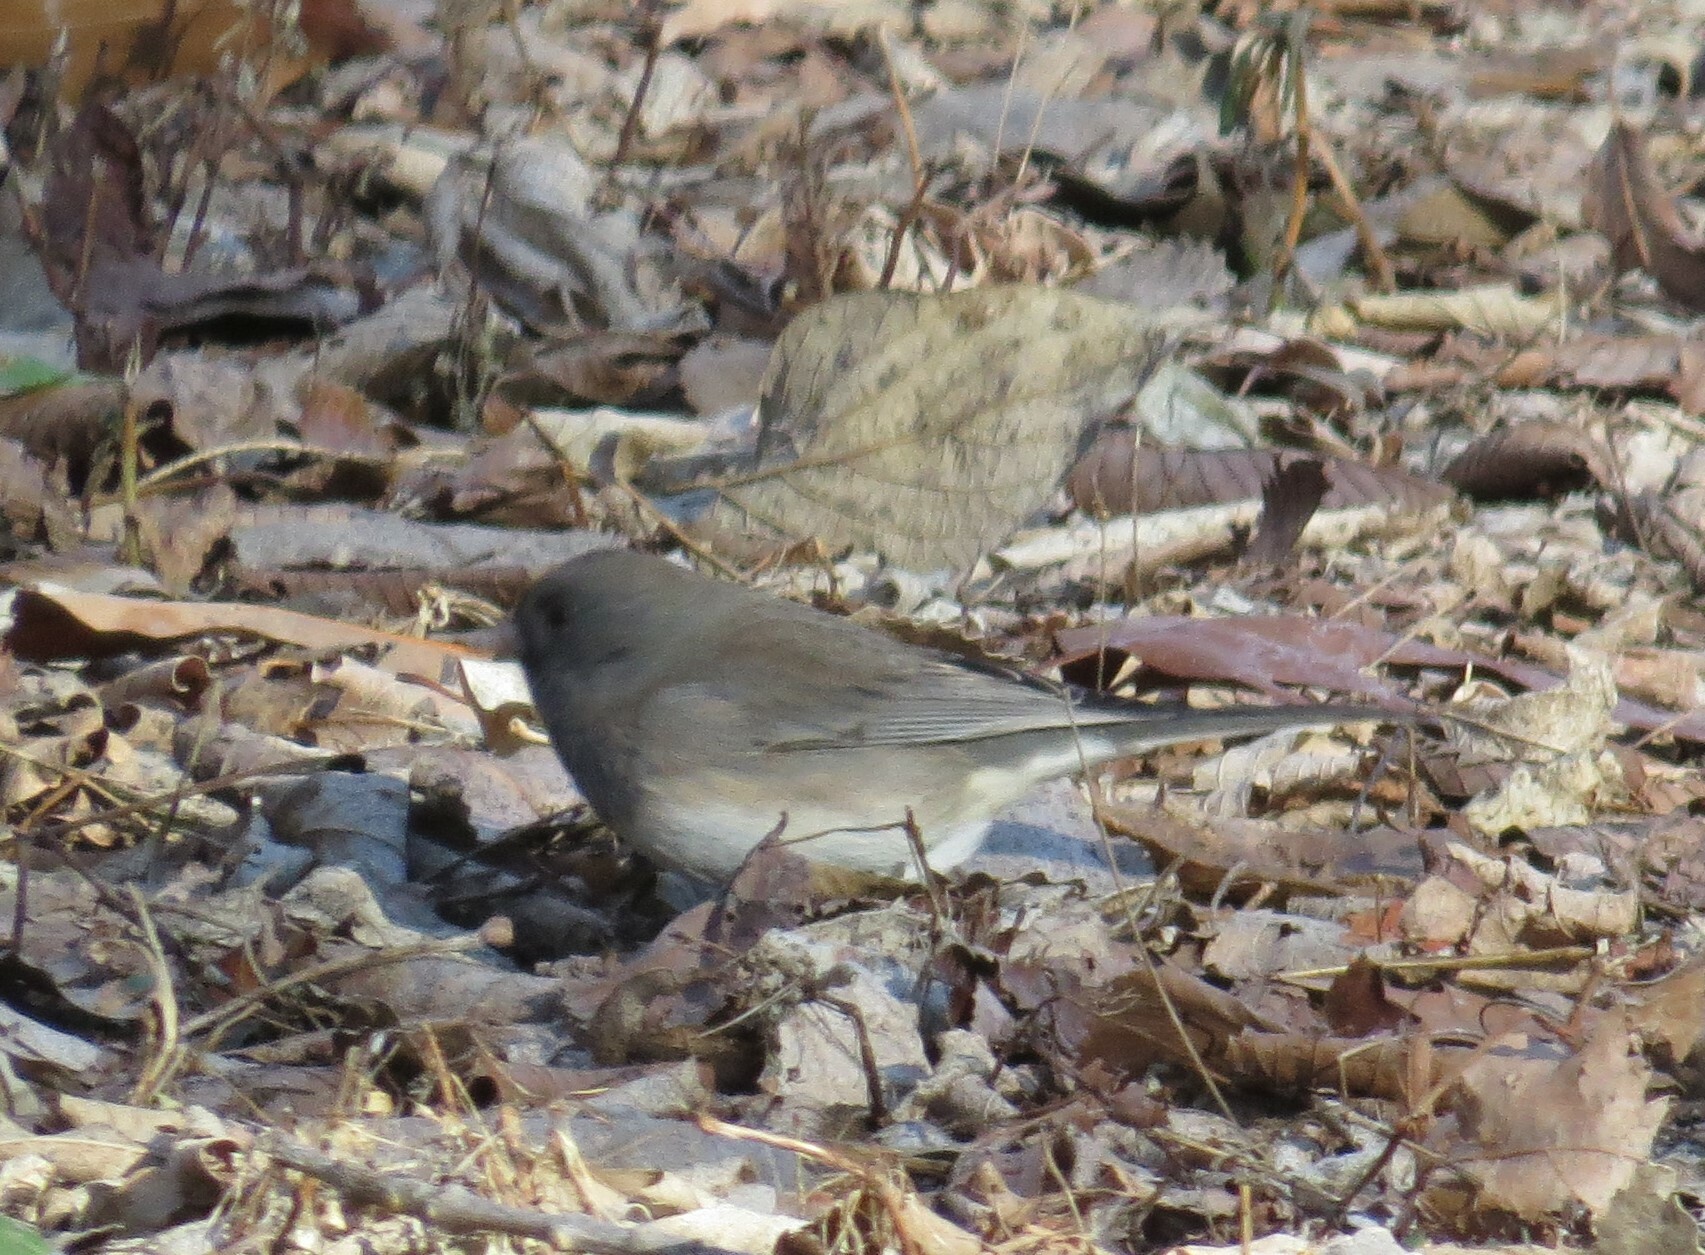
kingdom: Animalia
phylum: Chordata
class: Aves
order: Passeriformes
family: Passerellidae
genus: Junco
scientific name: Junco hyemalis
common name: Dark-eyed junco
